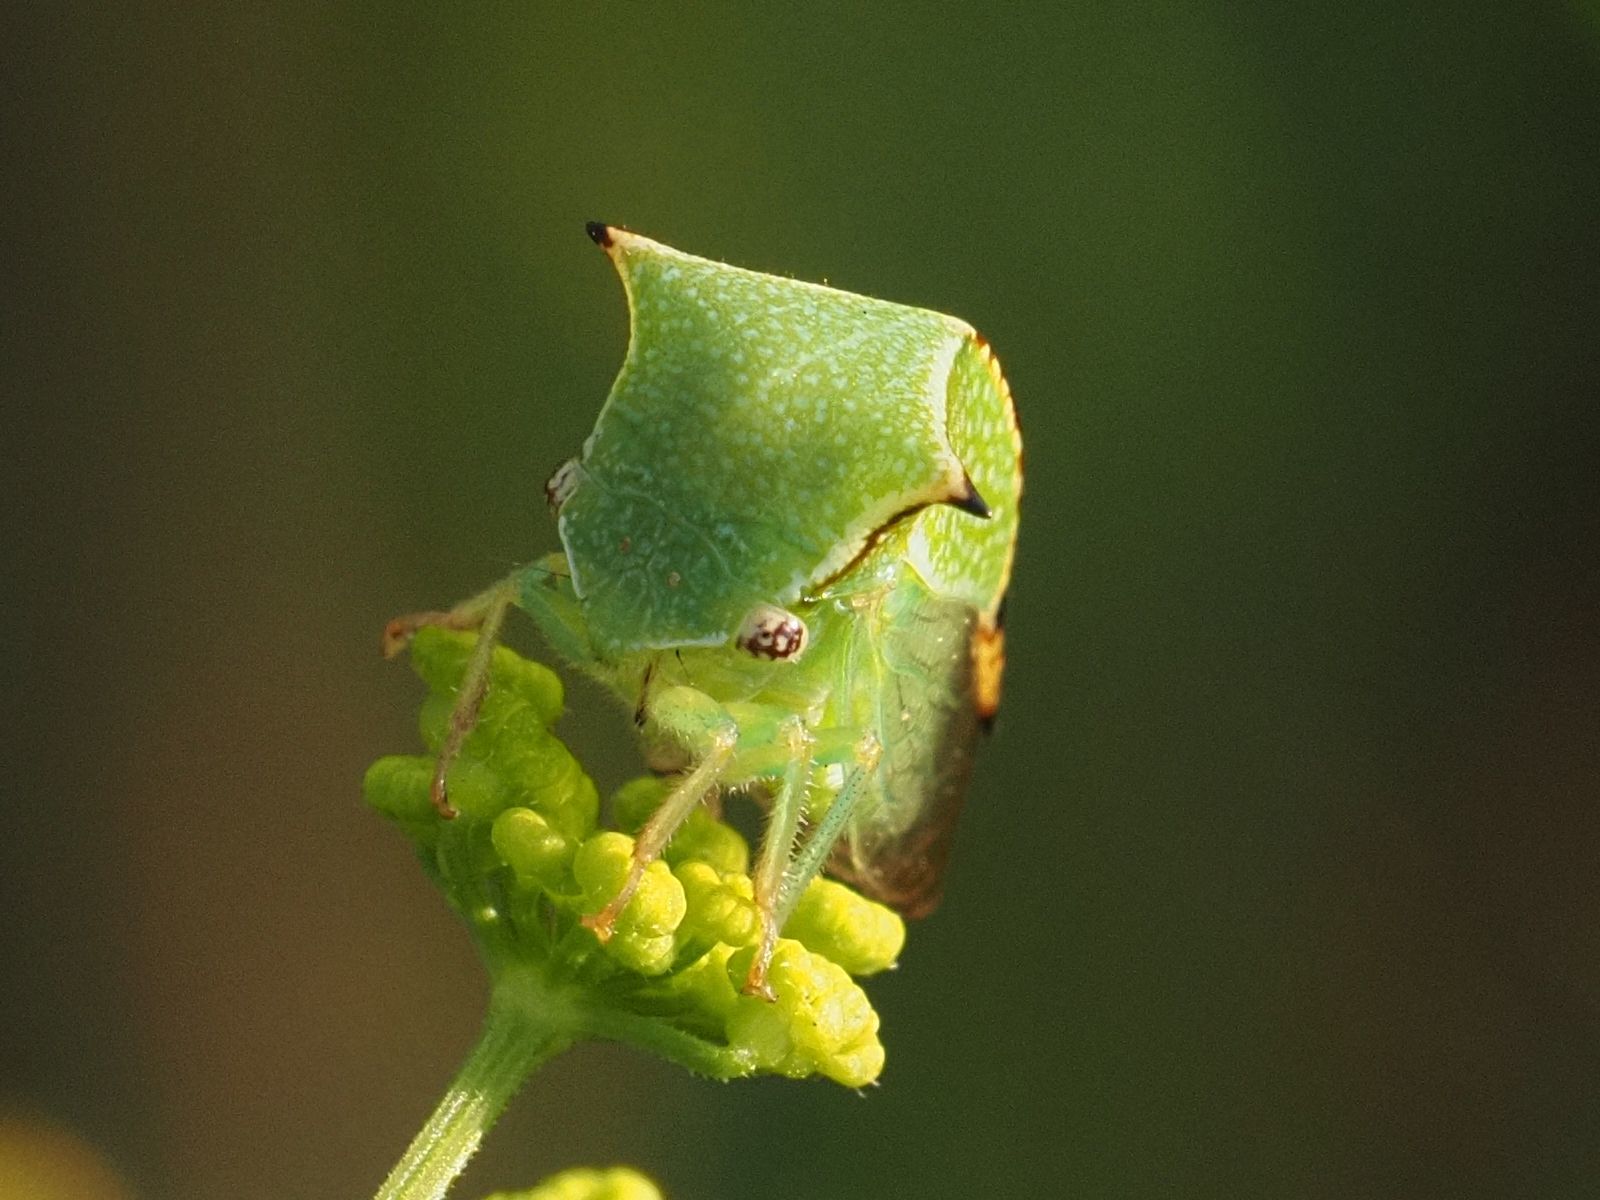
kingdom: Animalia
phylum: Arthropoda
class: Insecta
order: Hemiptera
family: Membracidae
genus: Stictocephala
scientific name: Stictocephala bisonia
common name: American buffalo treehopper
